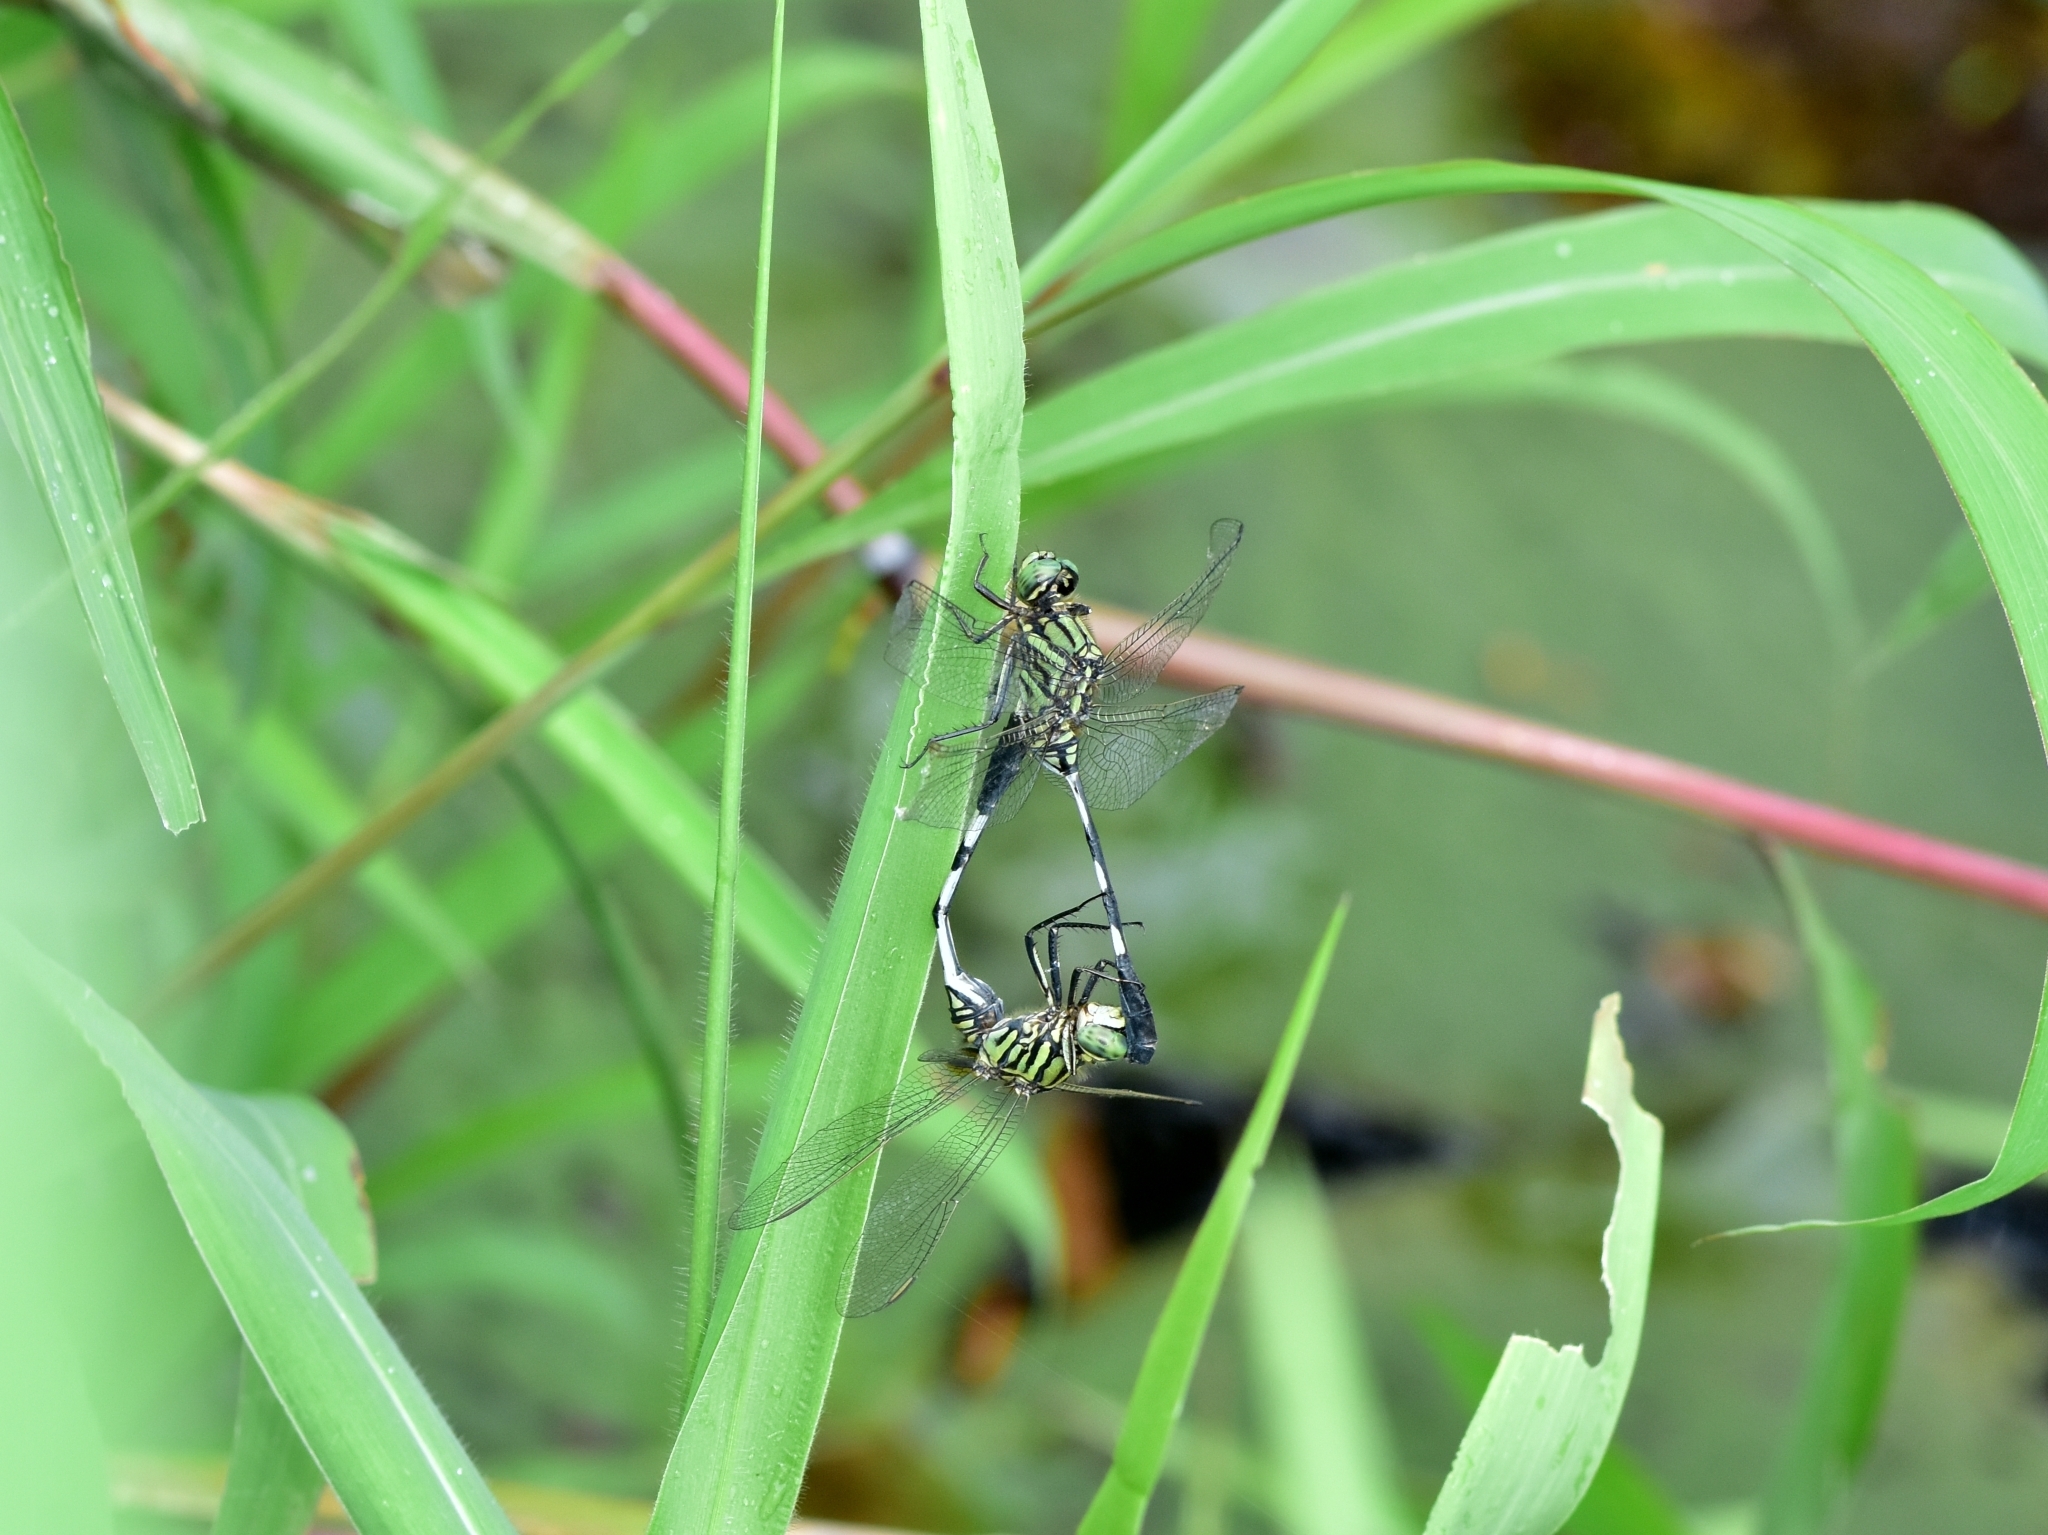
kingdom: Animalia
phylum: Arthropoda
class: Insecta
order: Odonata
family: Libellulidae
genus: Orthetrum
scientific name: Orthetrum sabina
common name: Slender skimmer
